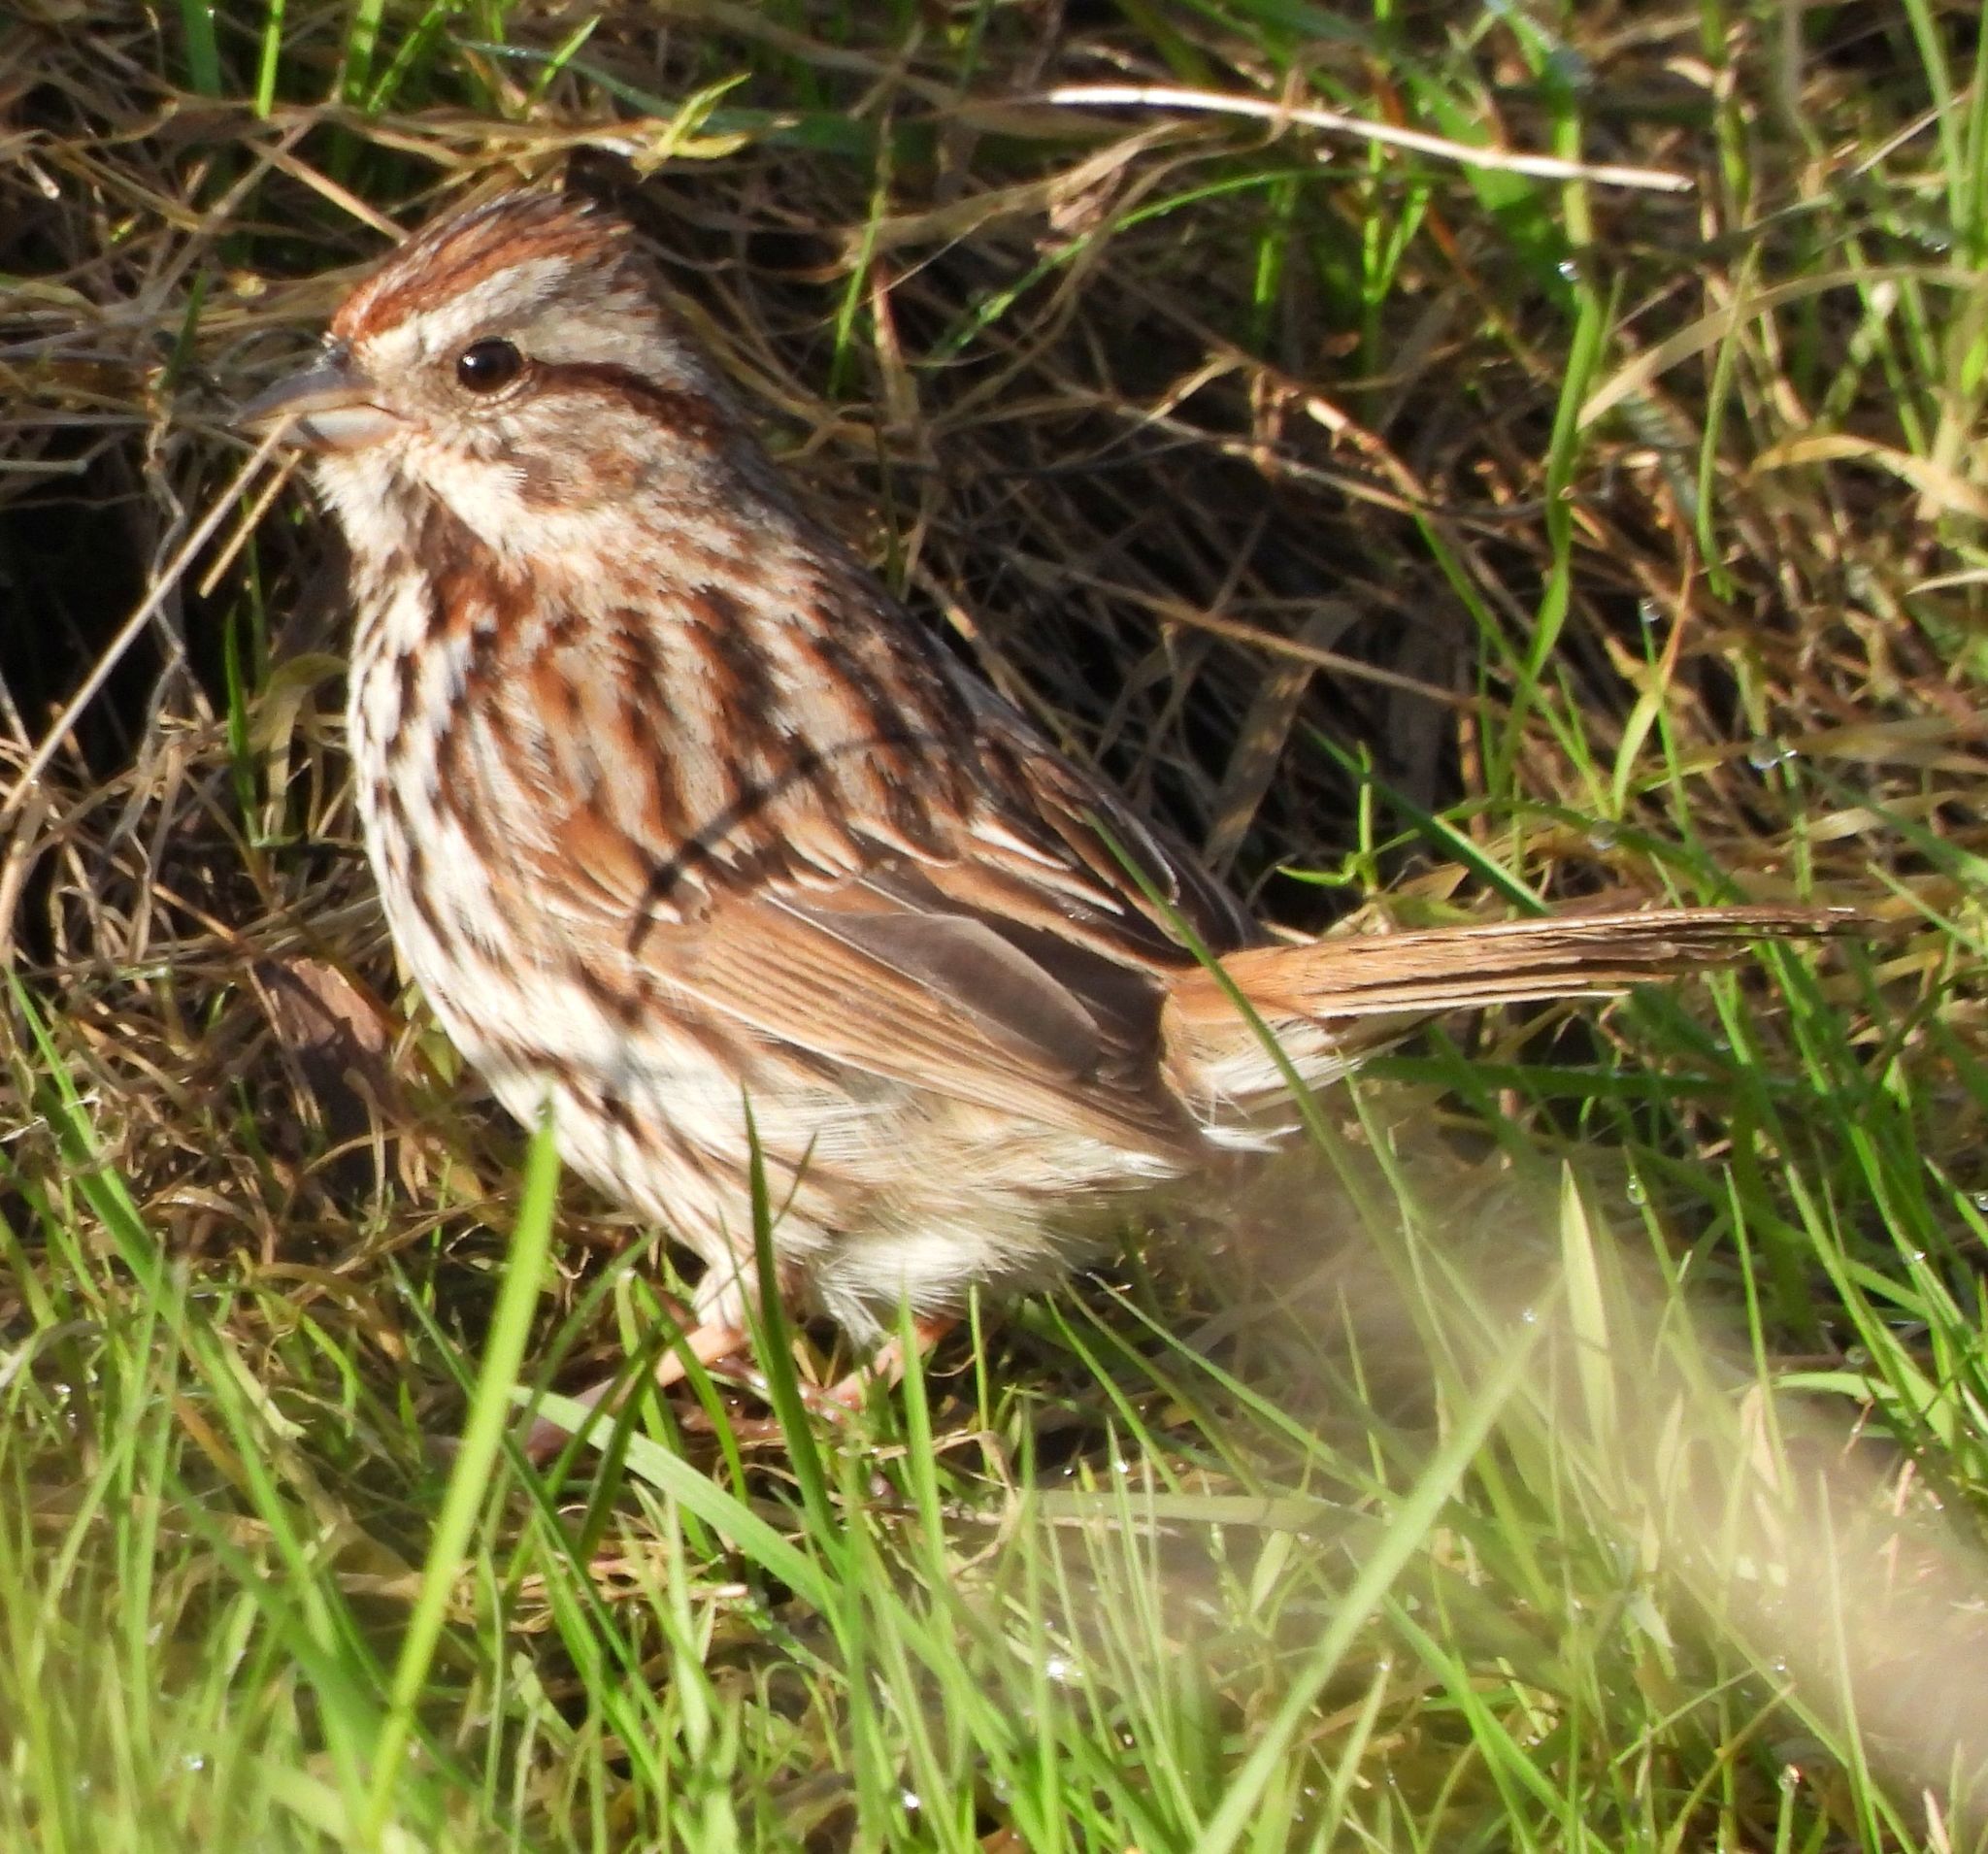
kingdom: Animalia
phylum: Chordata
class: Aves
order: Passeriformes
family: Passerellidae
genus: Melospiza
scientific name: Melospiza melodia
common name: Song sparrow
